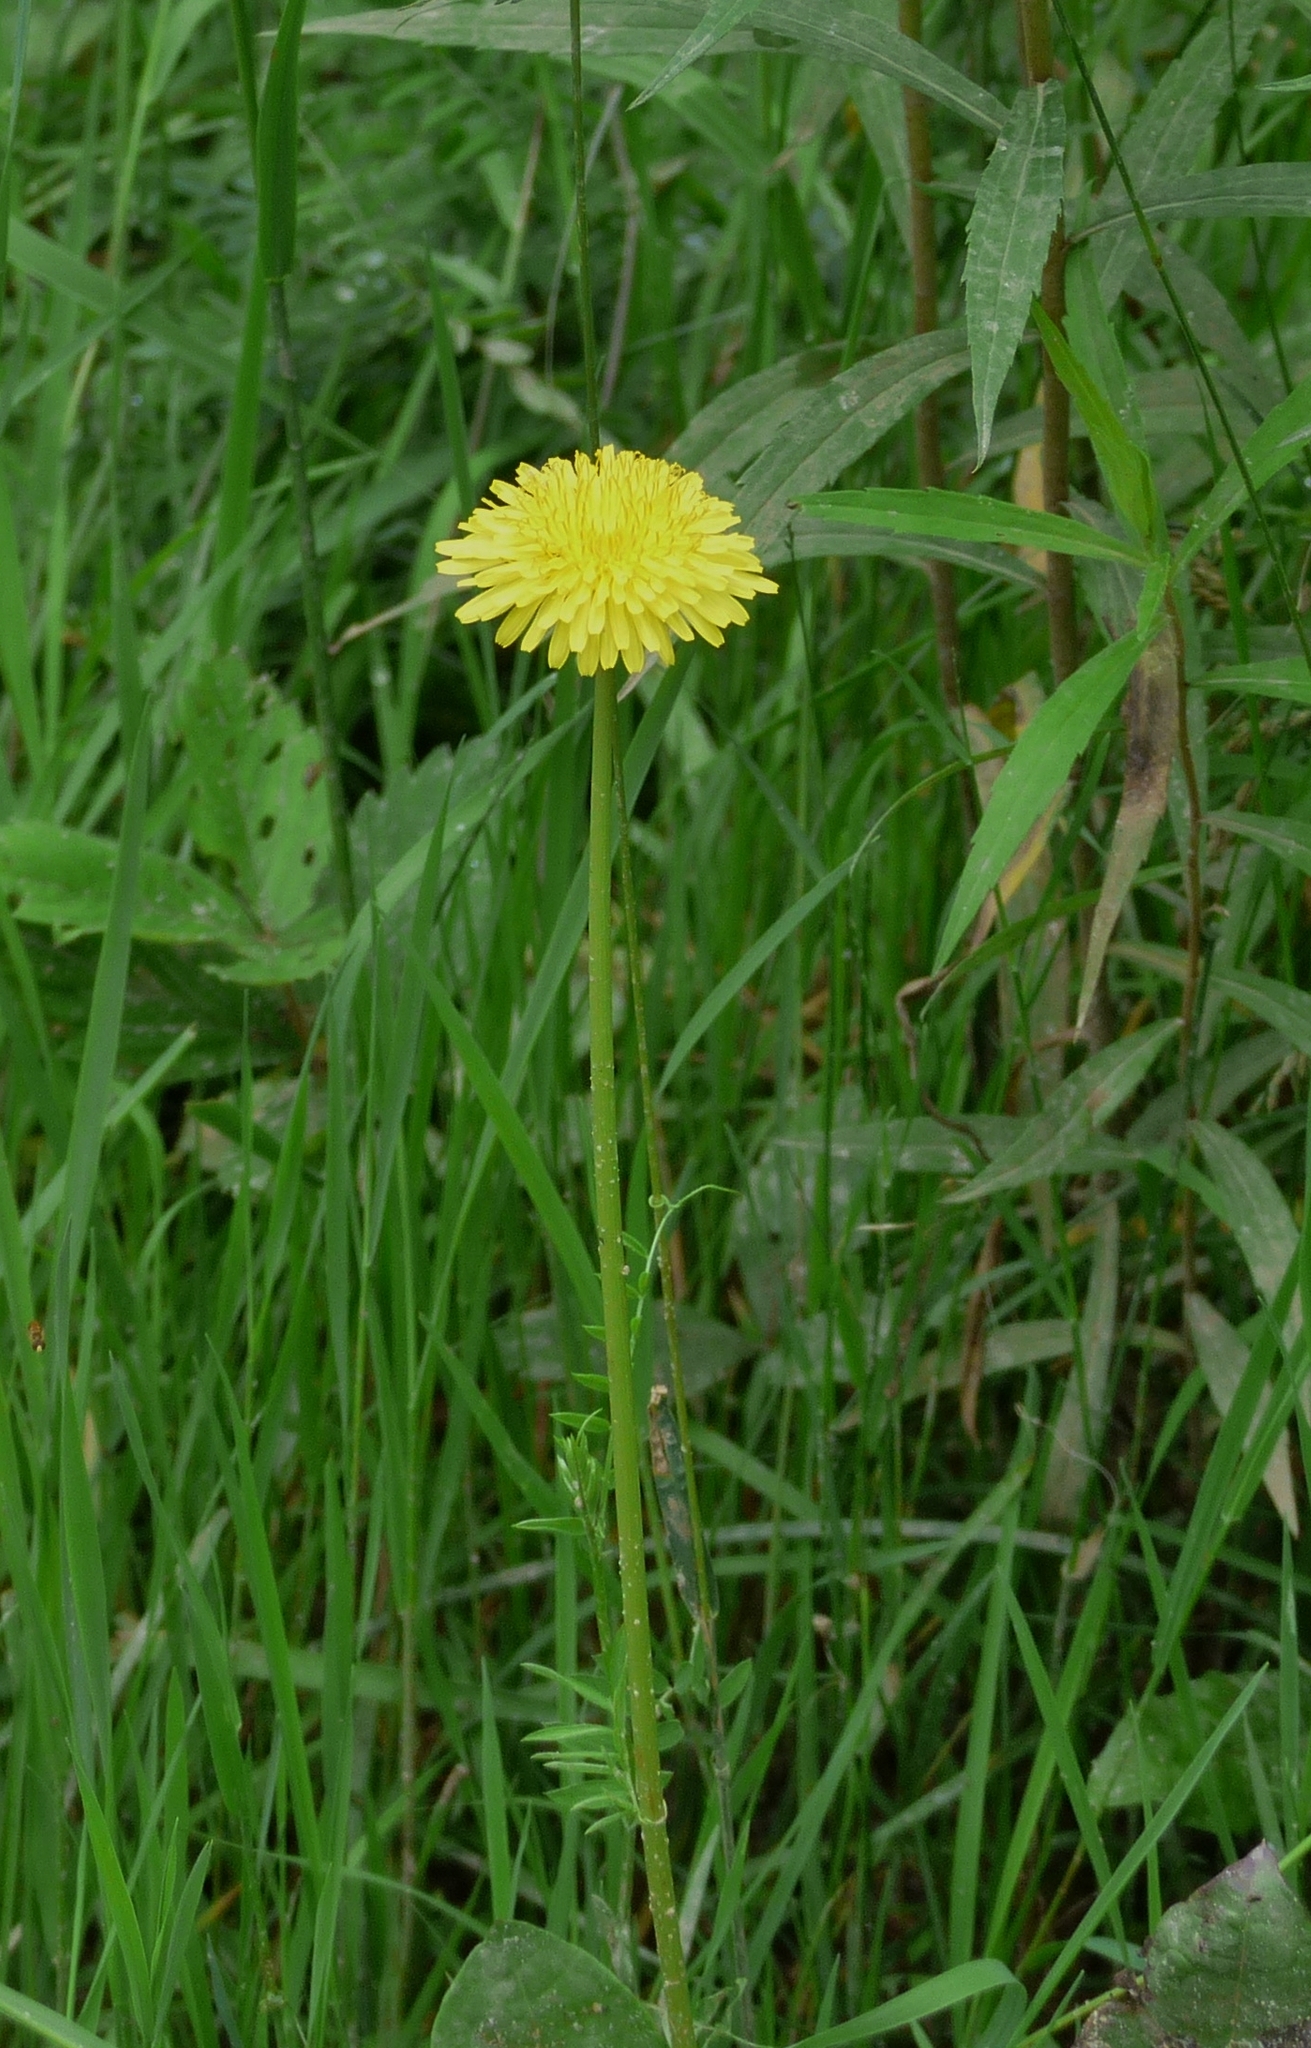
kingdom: Plantae
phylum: Tracheophyta
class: Magnoliopsida
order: Asterales
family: Asteraceae
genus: Taraxacum
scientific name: Taraxacum officinale
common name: Common dandelion
